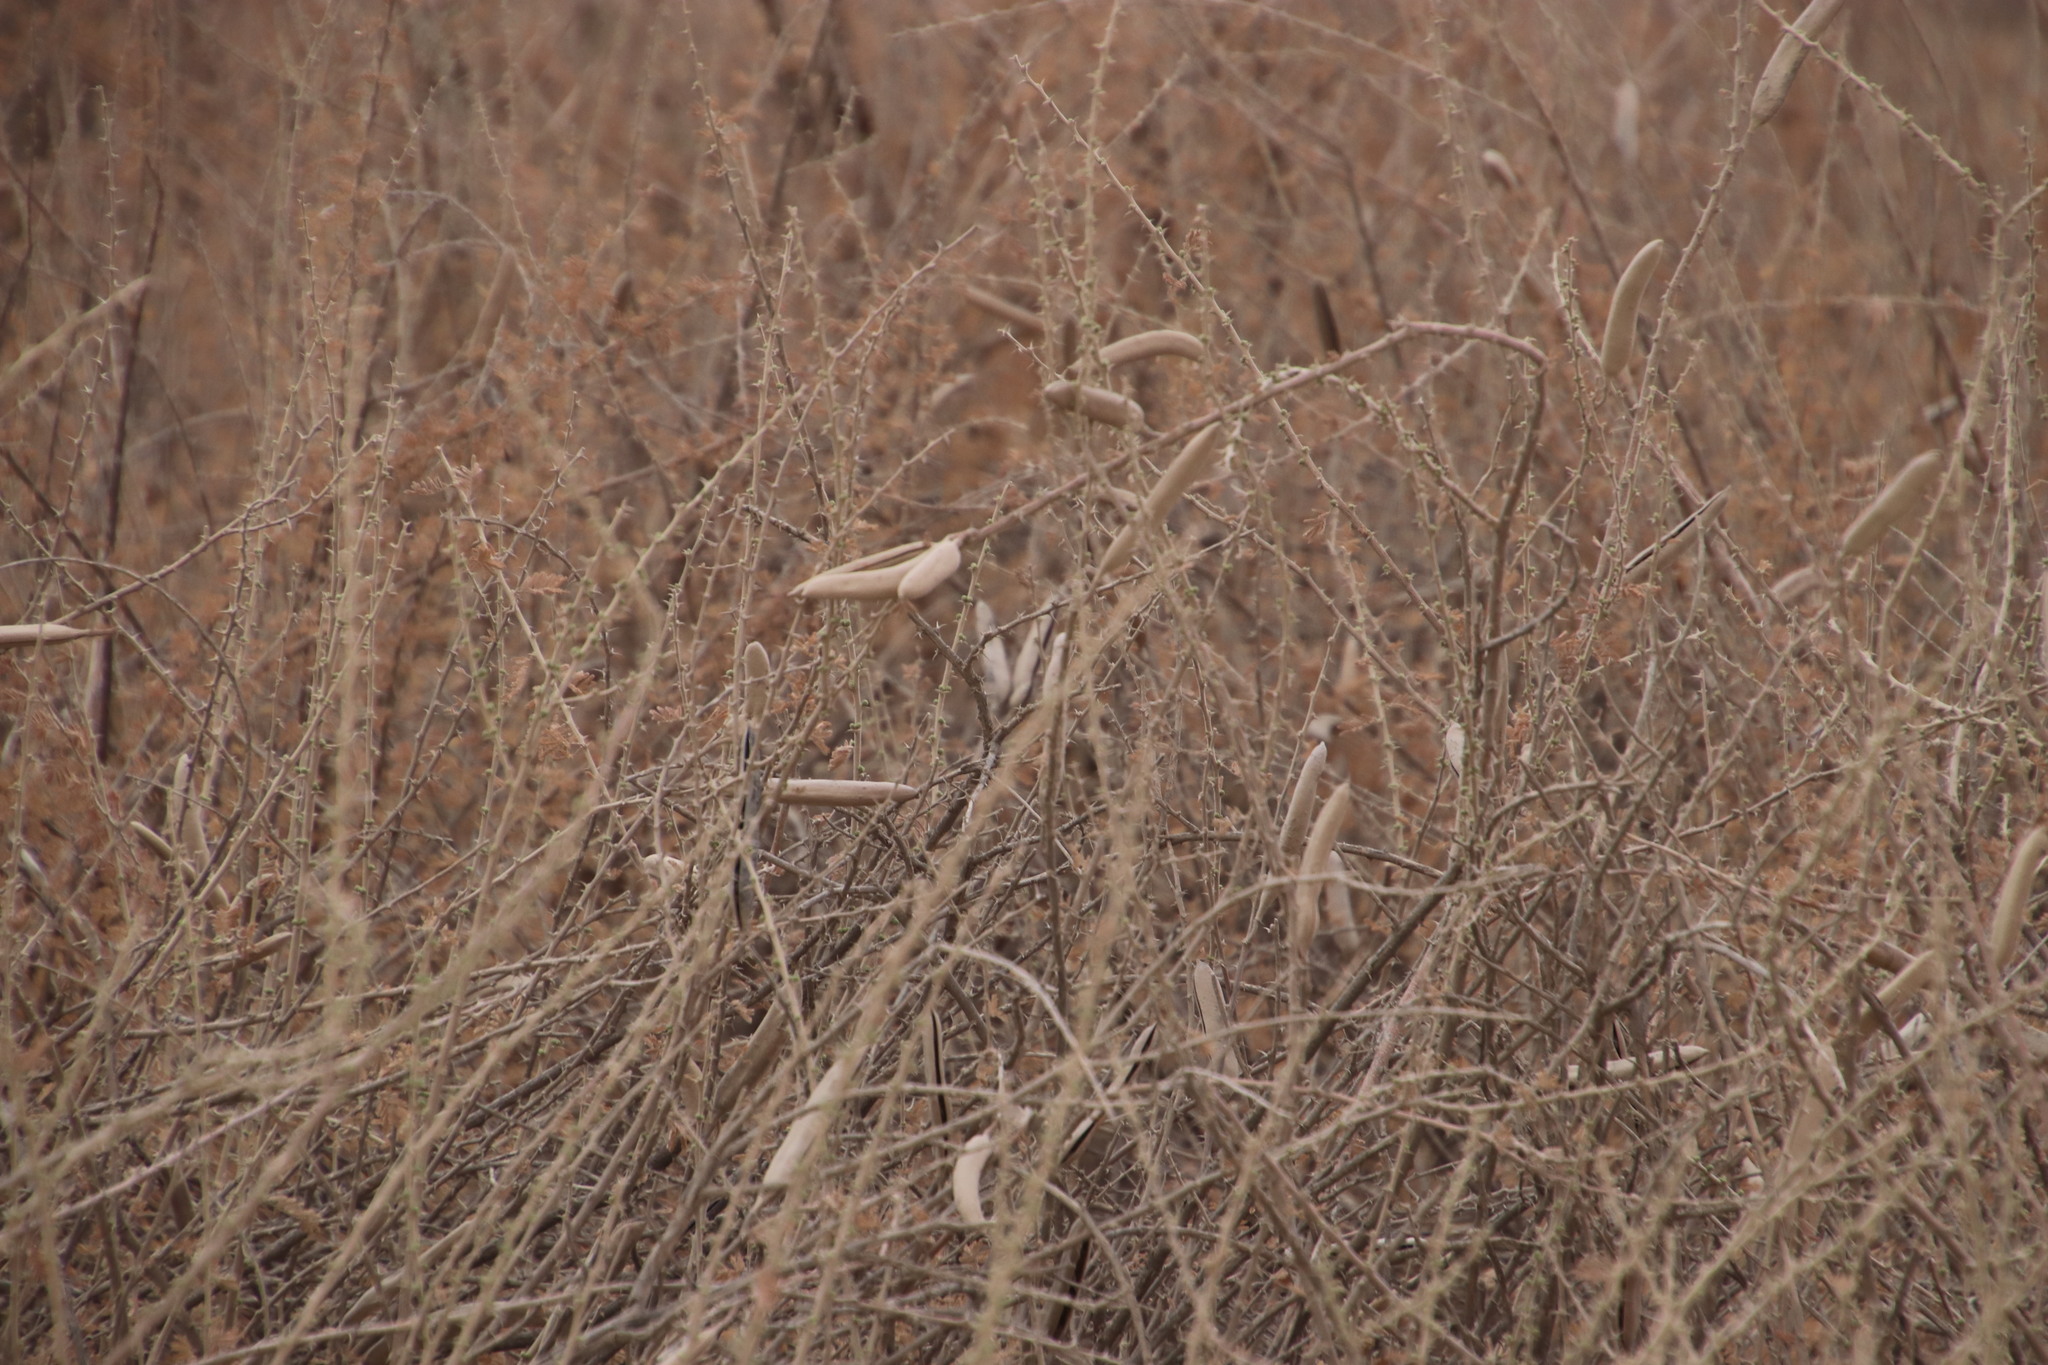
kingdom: Plantae
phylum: Tracheophyta
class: Magnoliopsida
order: Lamiales
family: Bignoniaceae
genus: Rhigozum
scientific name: Rhigozum trichotomum
